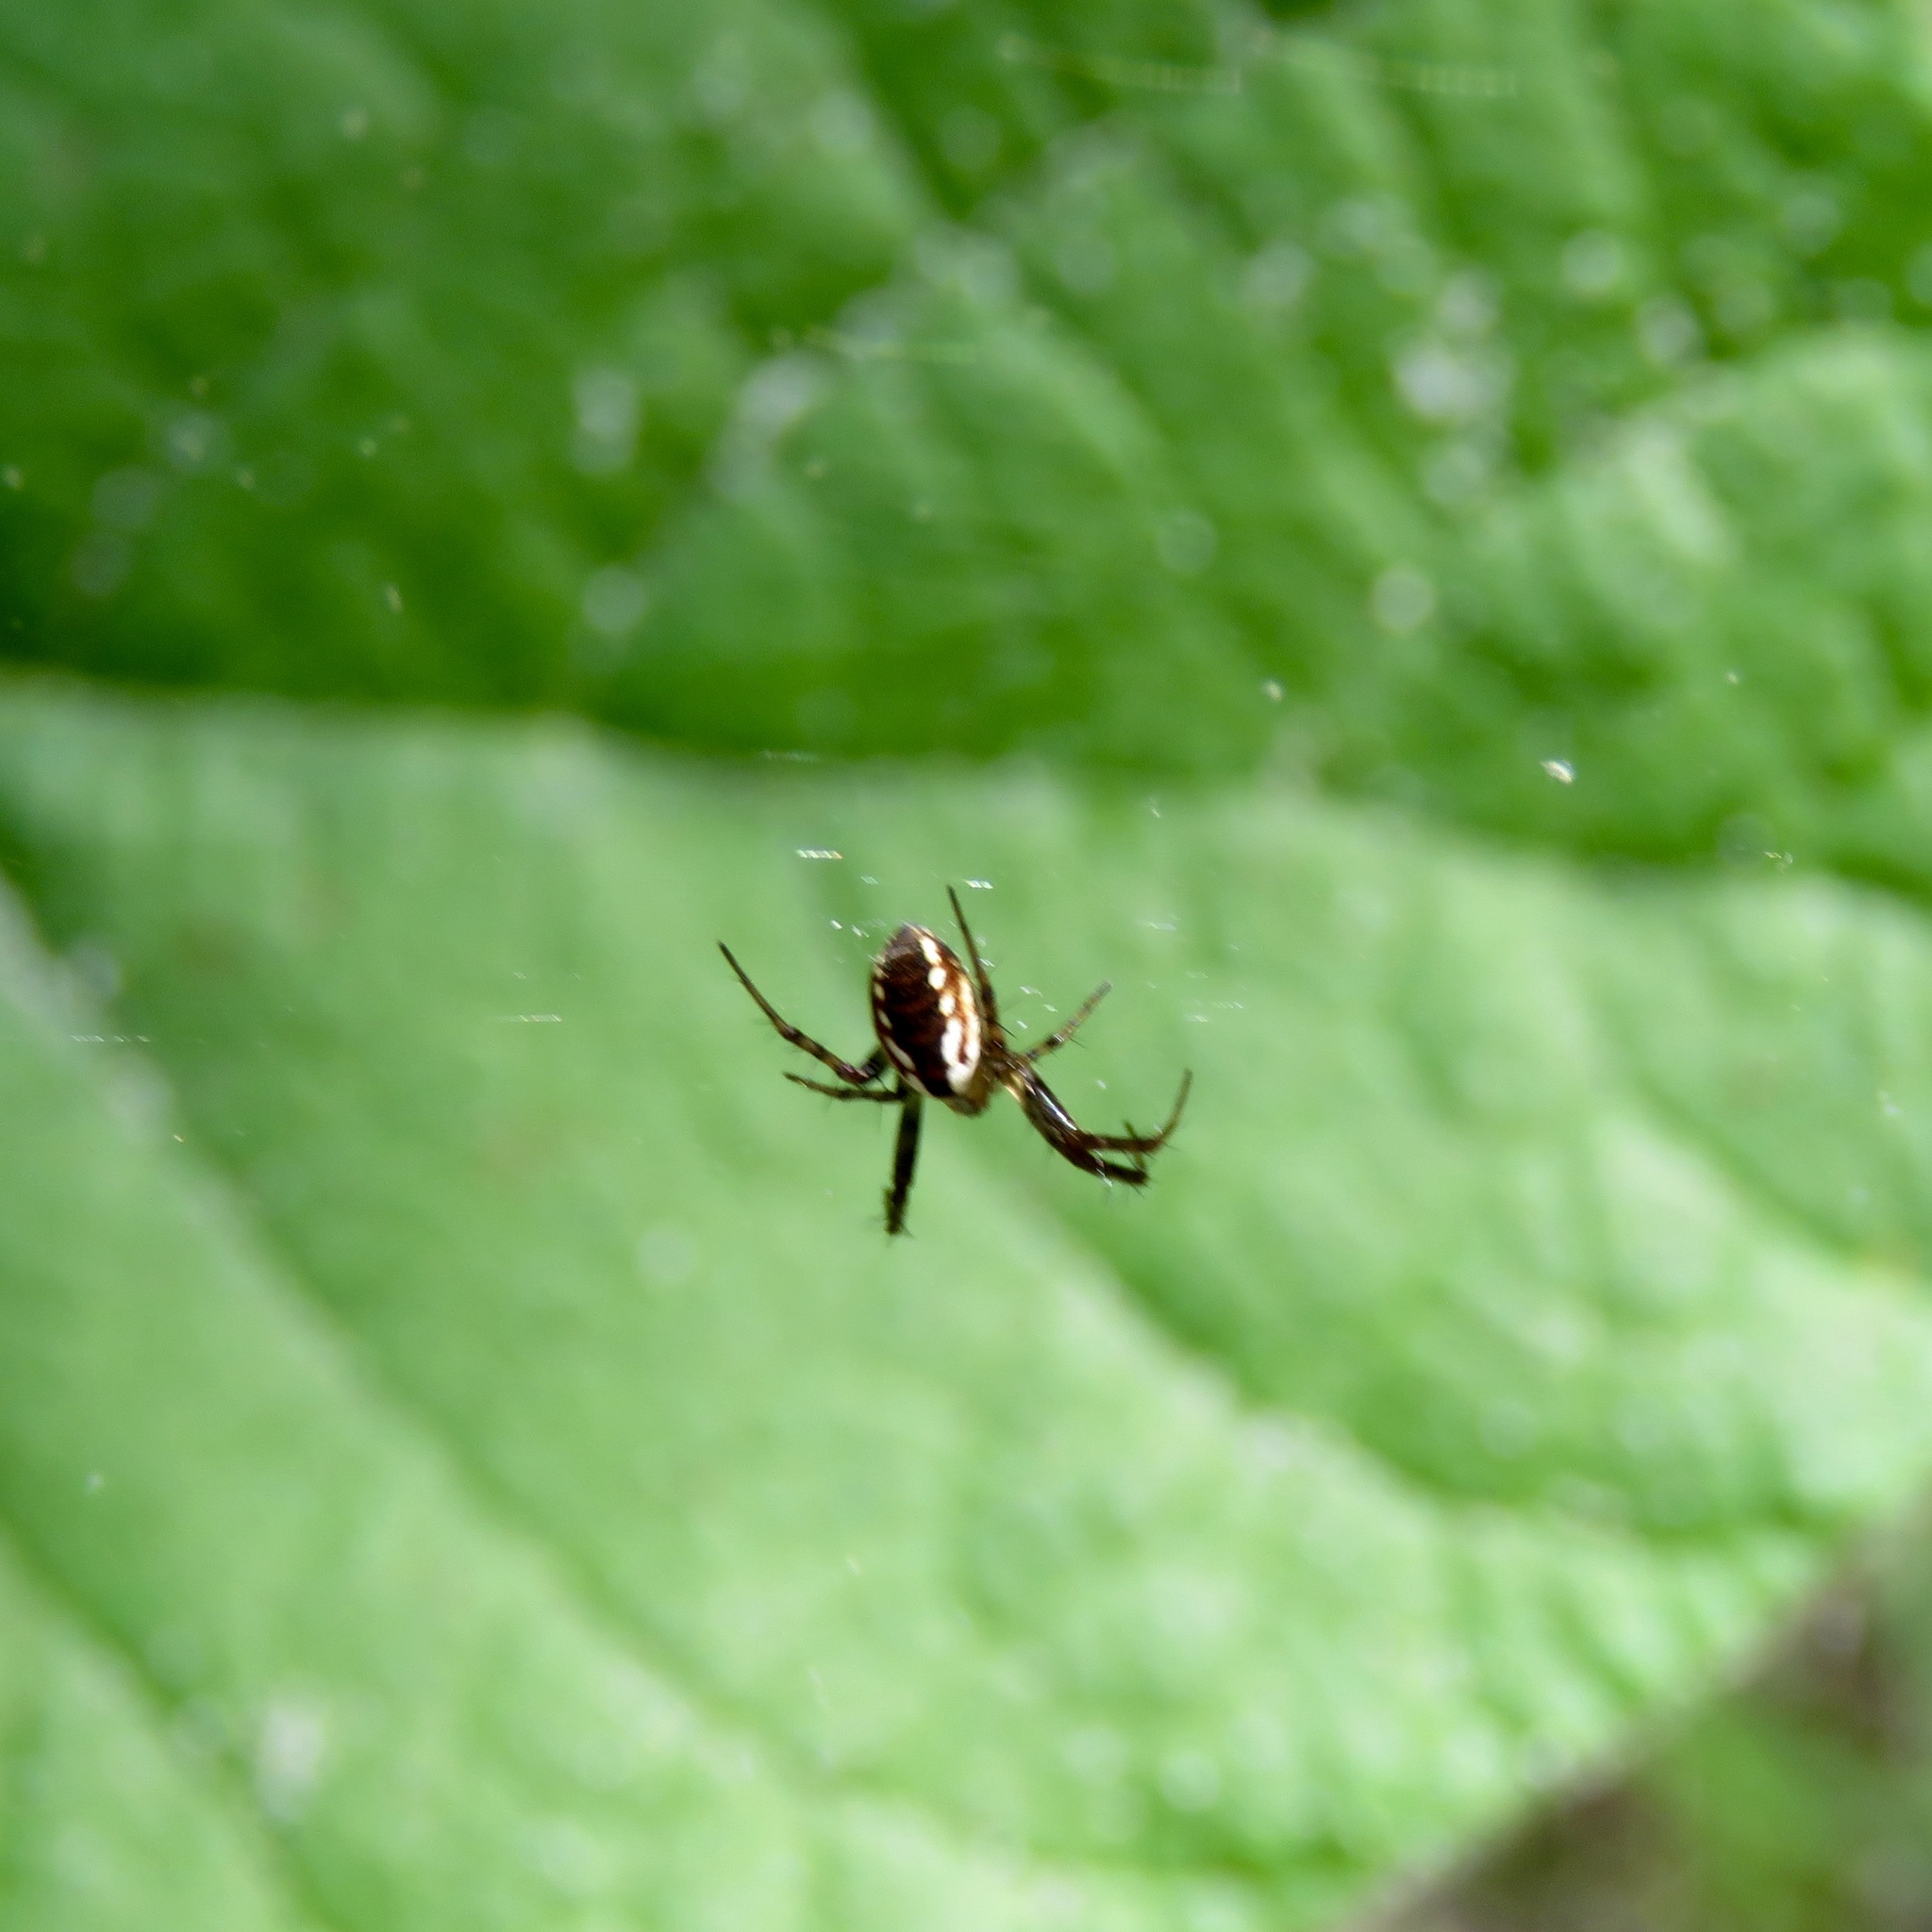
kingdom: Animalia
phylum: Arthropoda
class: Arachnida
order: Araneae
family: Araneidae
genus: Mangora
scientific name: Mangora placida
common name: Tuft-legged orbweaver
